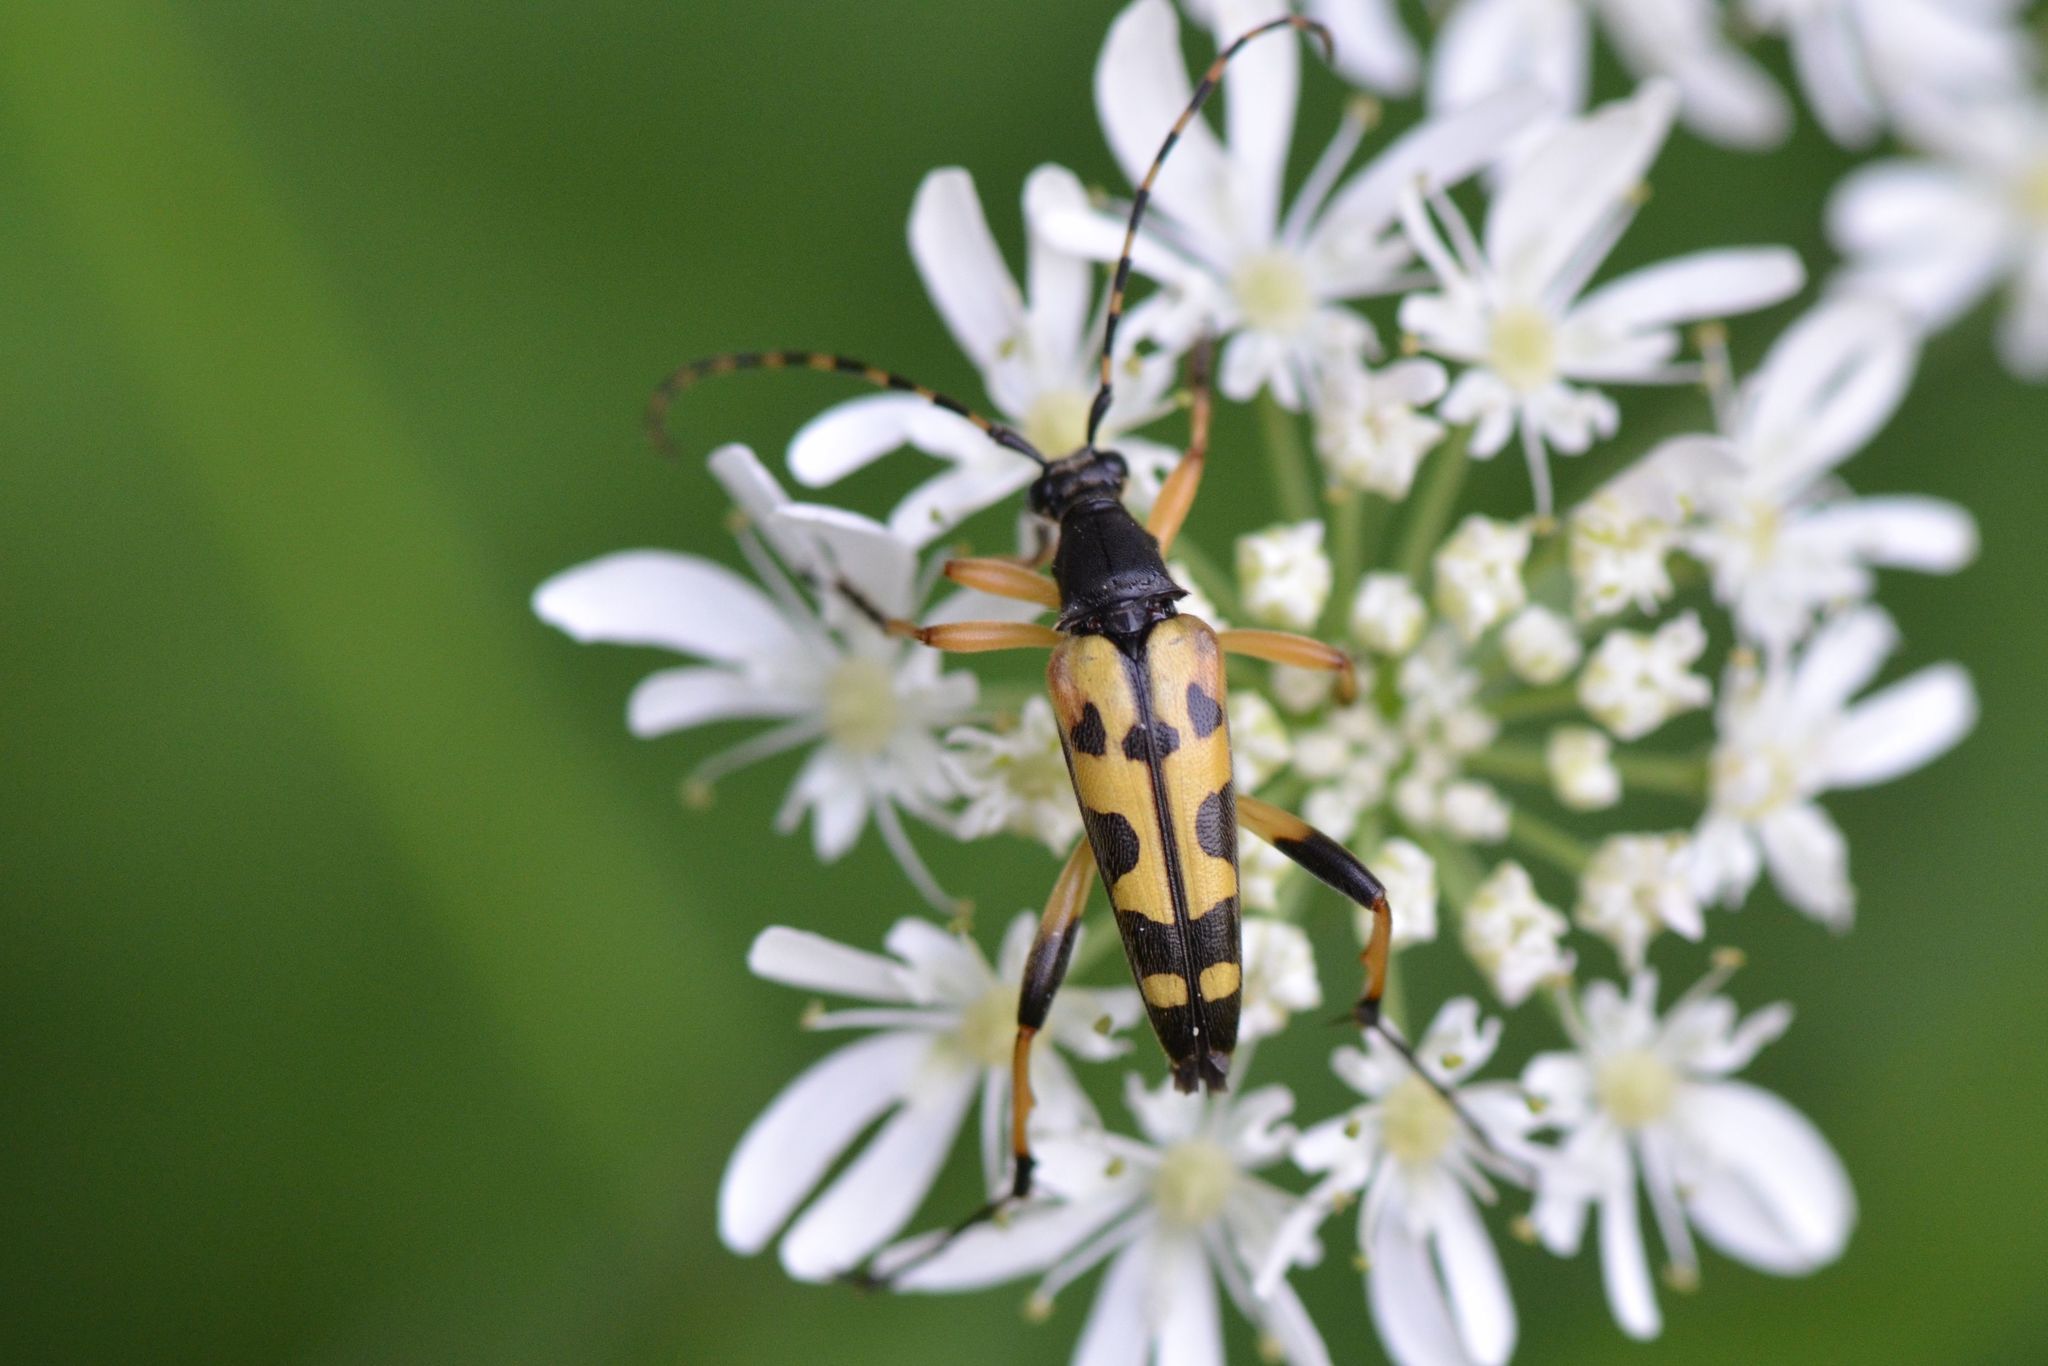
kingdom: Animalia
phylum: Arthropoda
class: Insecta
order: Coleoptera
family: Cerambycidae
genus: Rutpela
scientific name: Rutpela maculata
